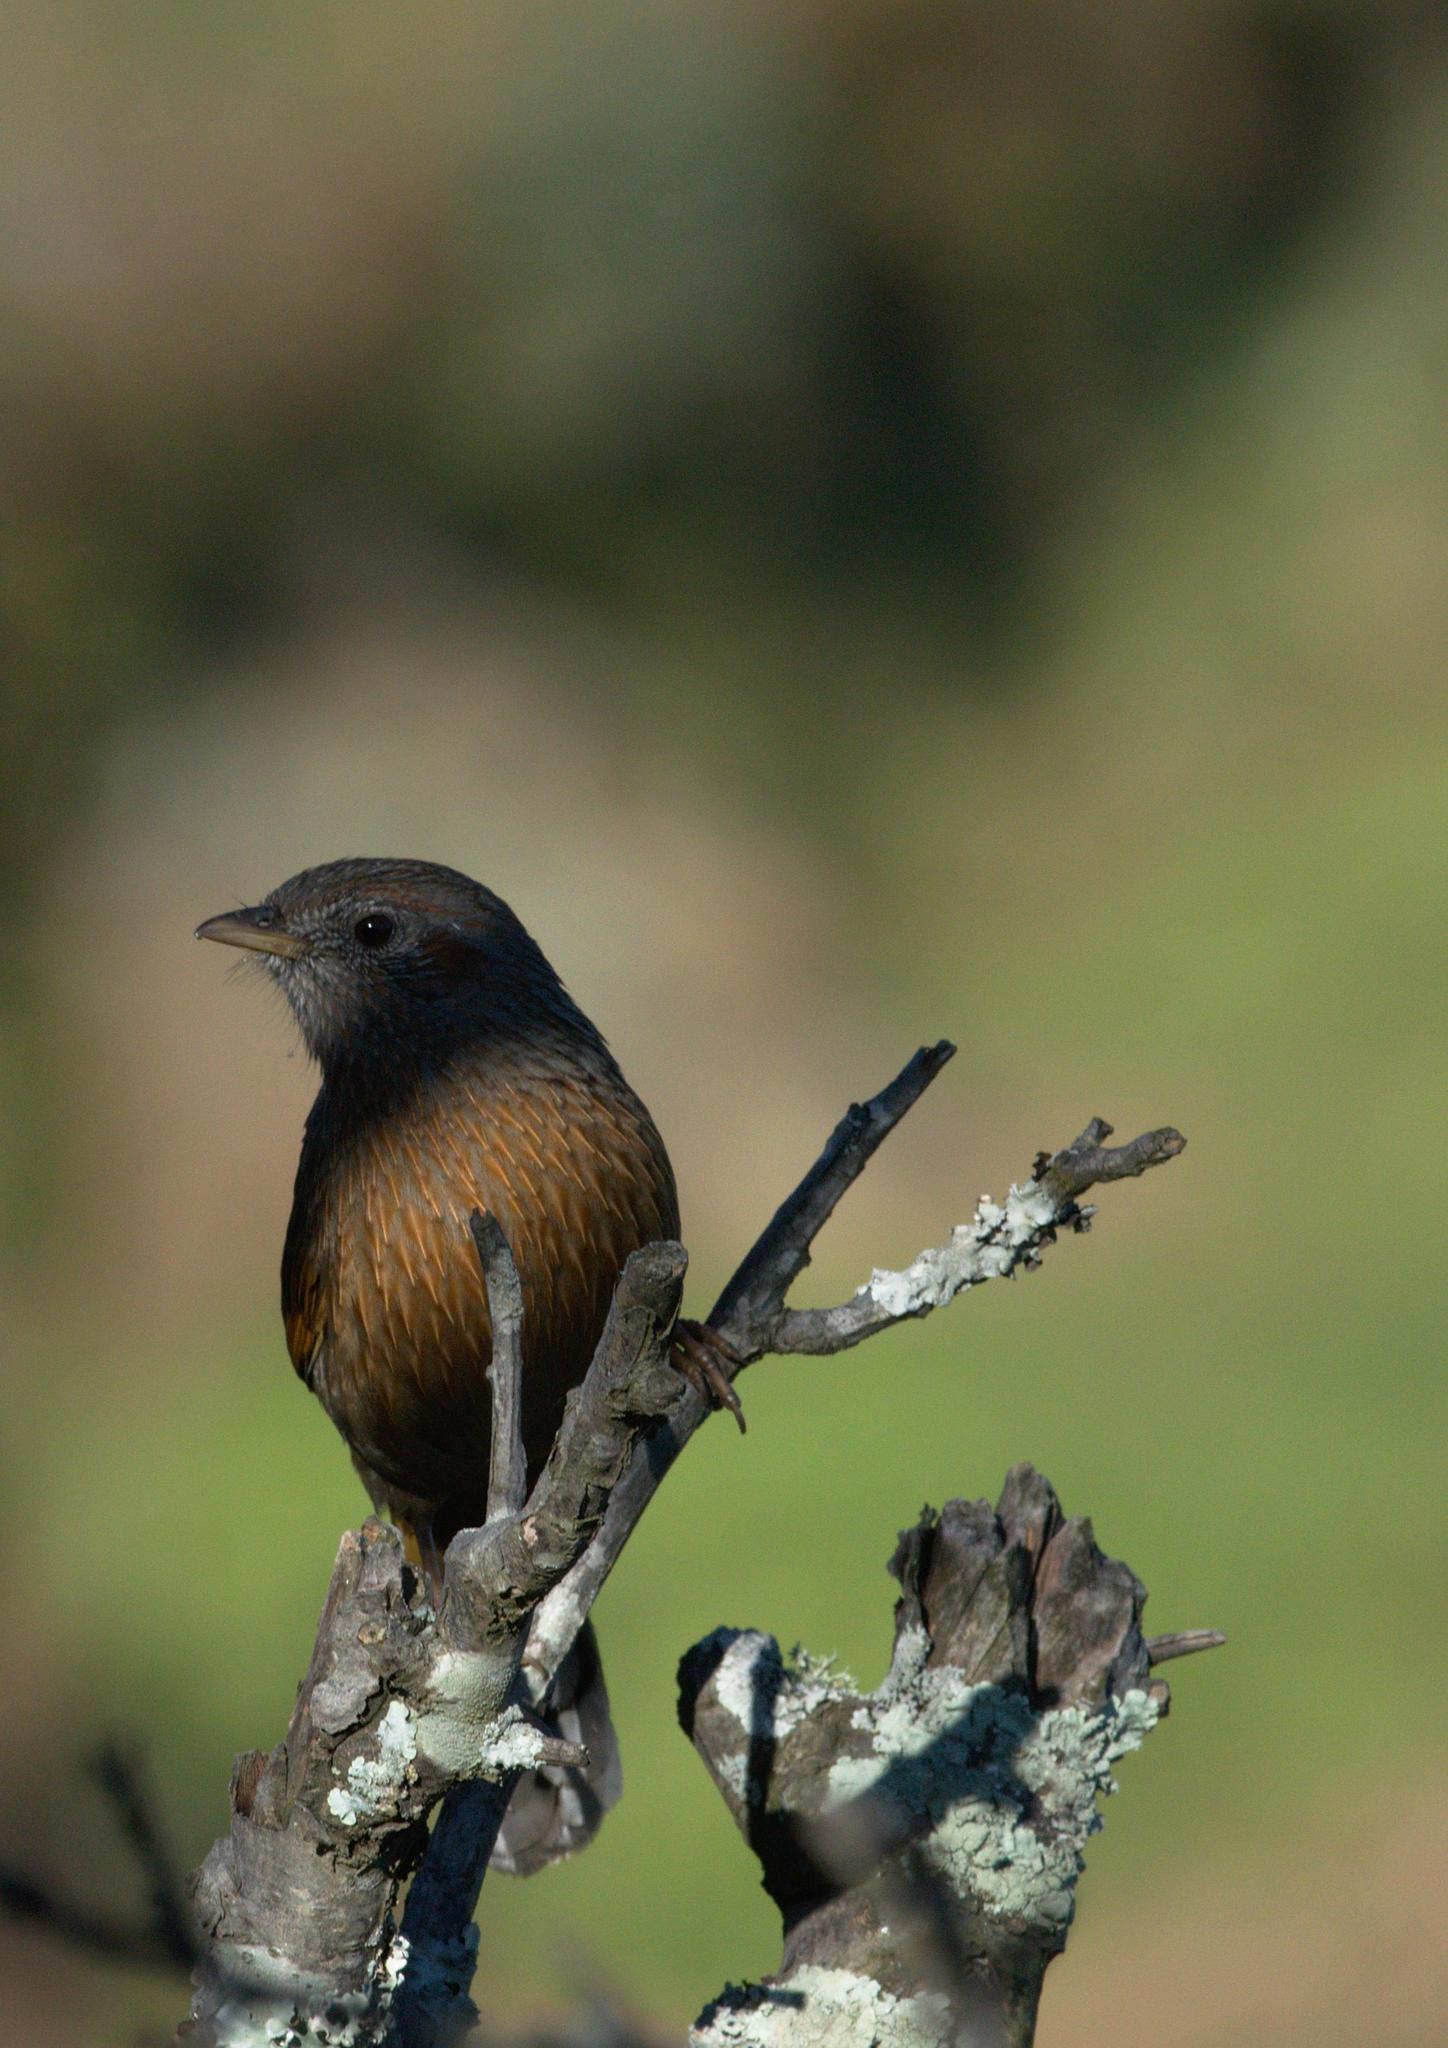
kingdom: Animalia
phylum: Chordata
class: Aves
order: Passeriformes
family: Leiothrichidae
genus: Trochalopteron
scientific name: Trochalopteron lineatum
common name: Streaked laughingthrush
